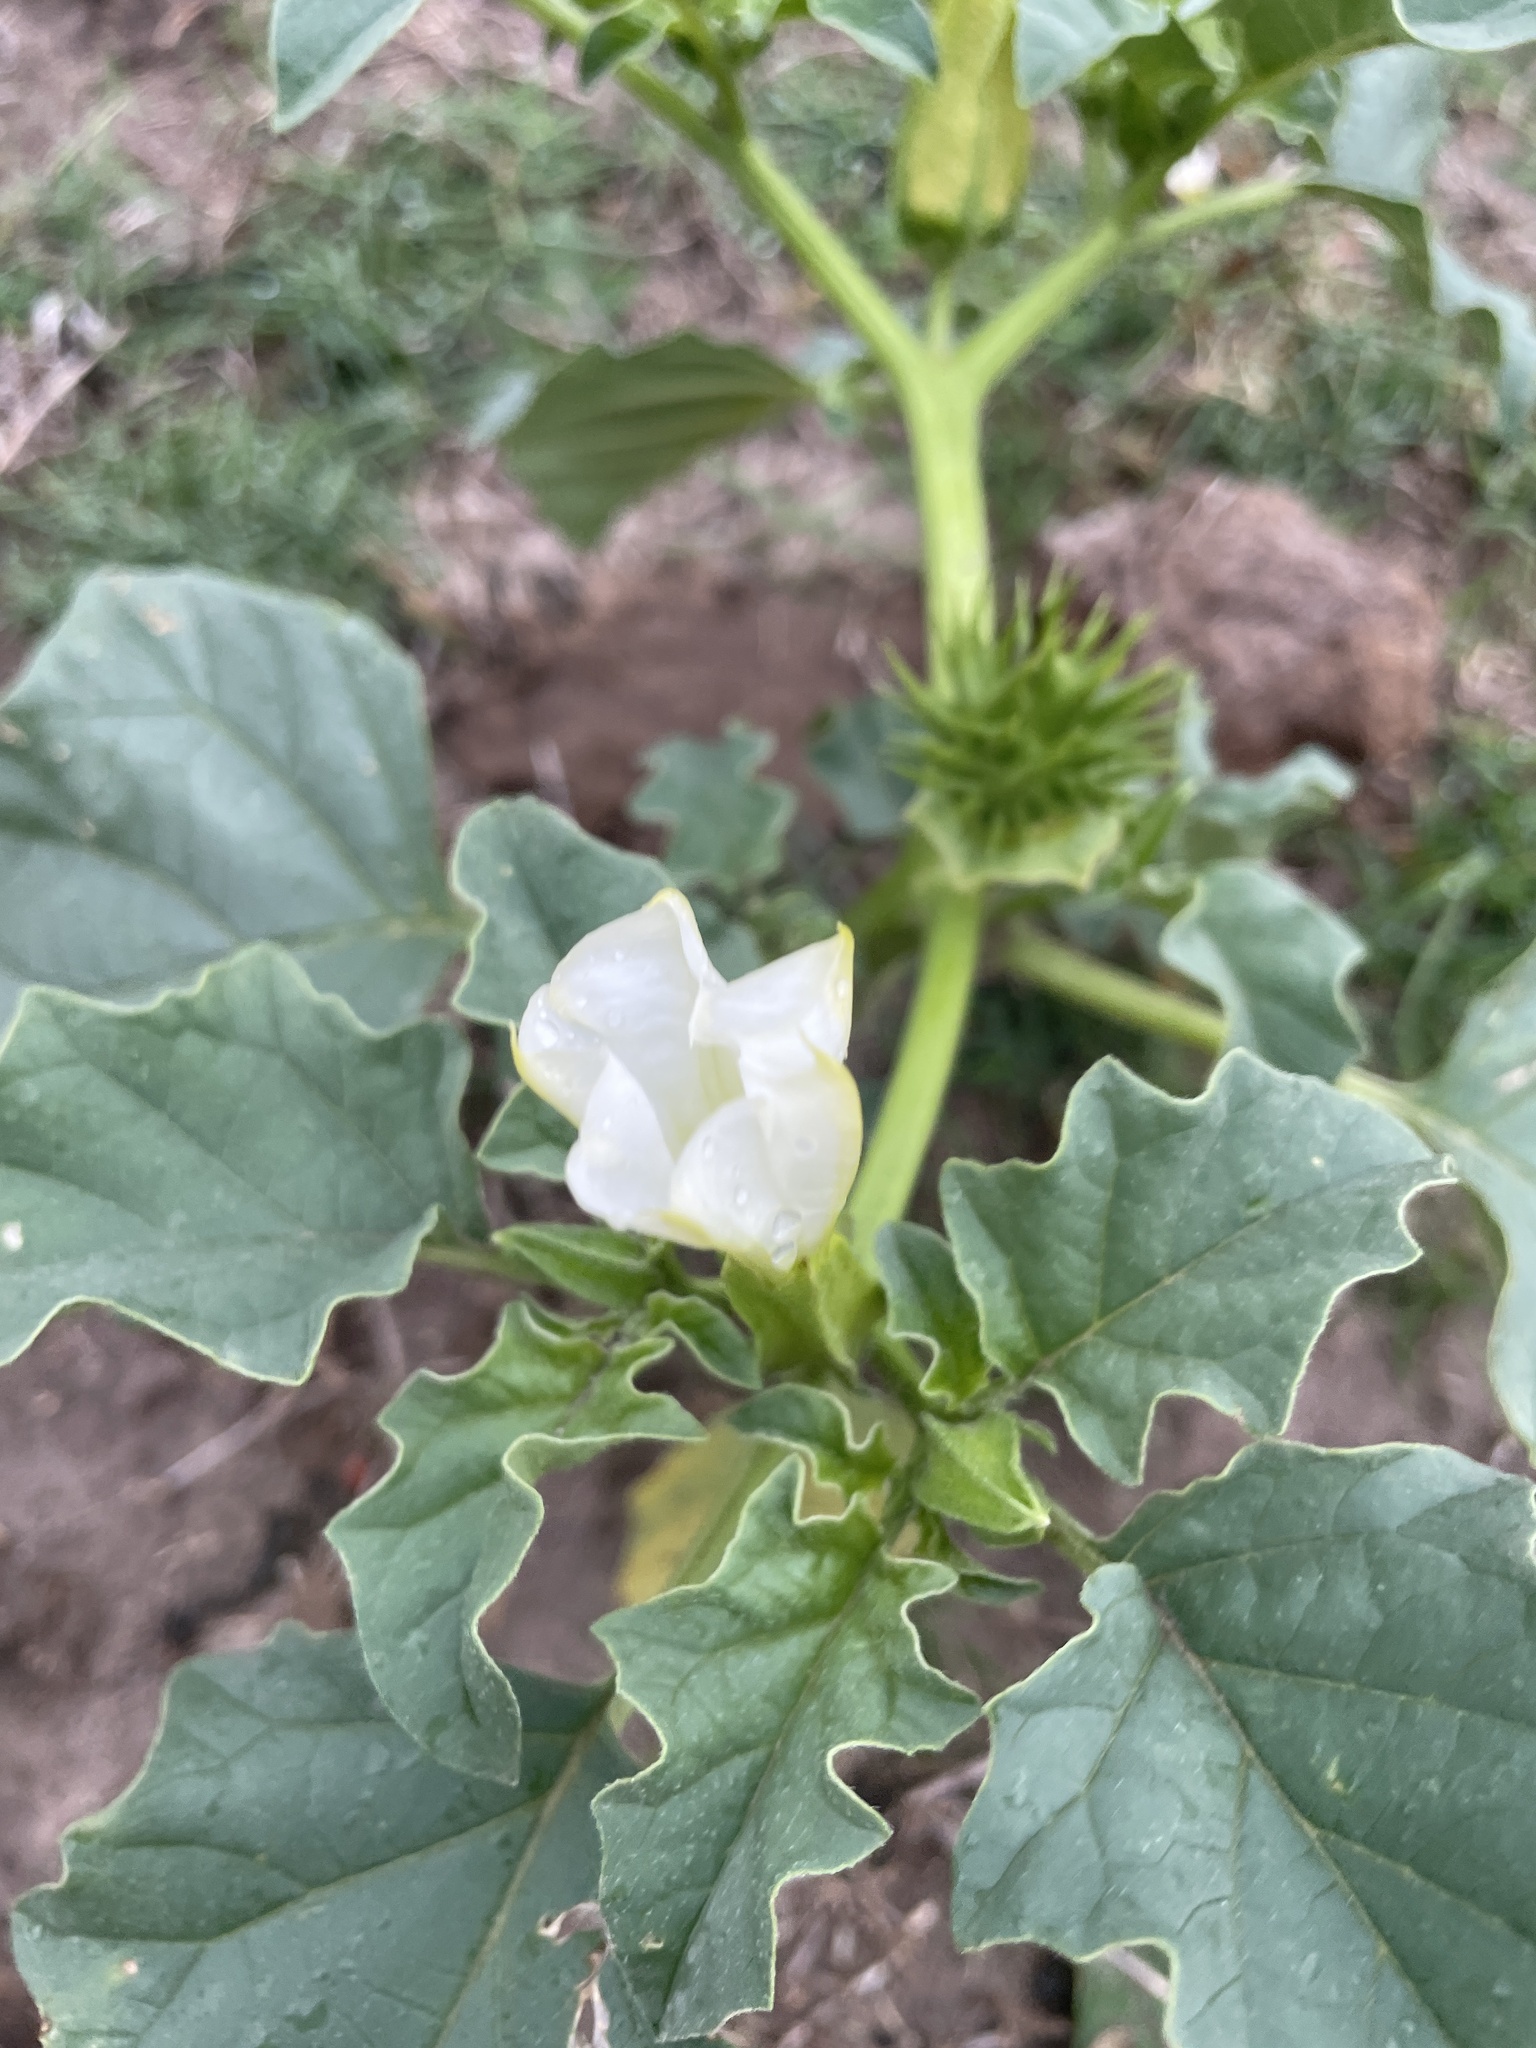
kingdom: Plantae
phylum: Tracheophyta
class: Magnoliopsida
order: Solanales
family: Solanaceae
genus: Datura
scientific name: Datura ferox
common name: Angel's-trumpets
